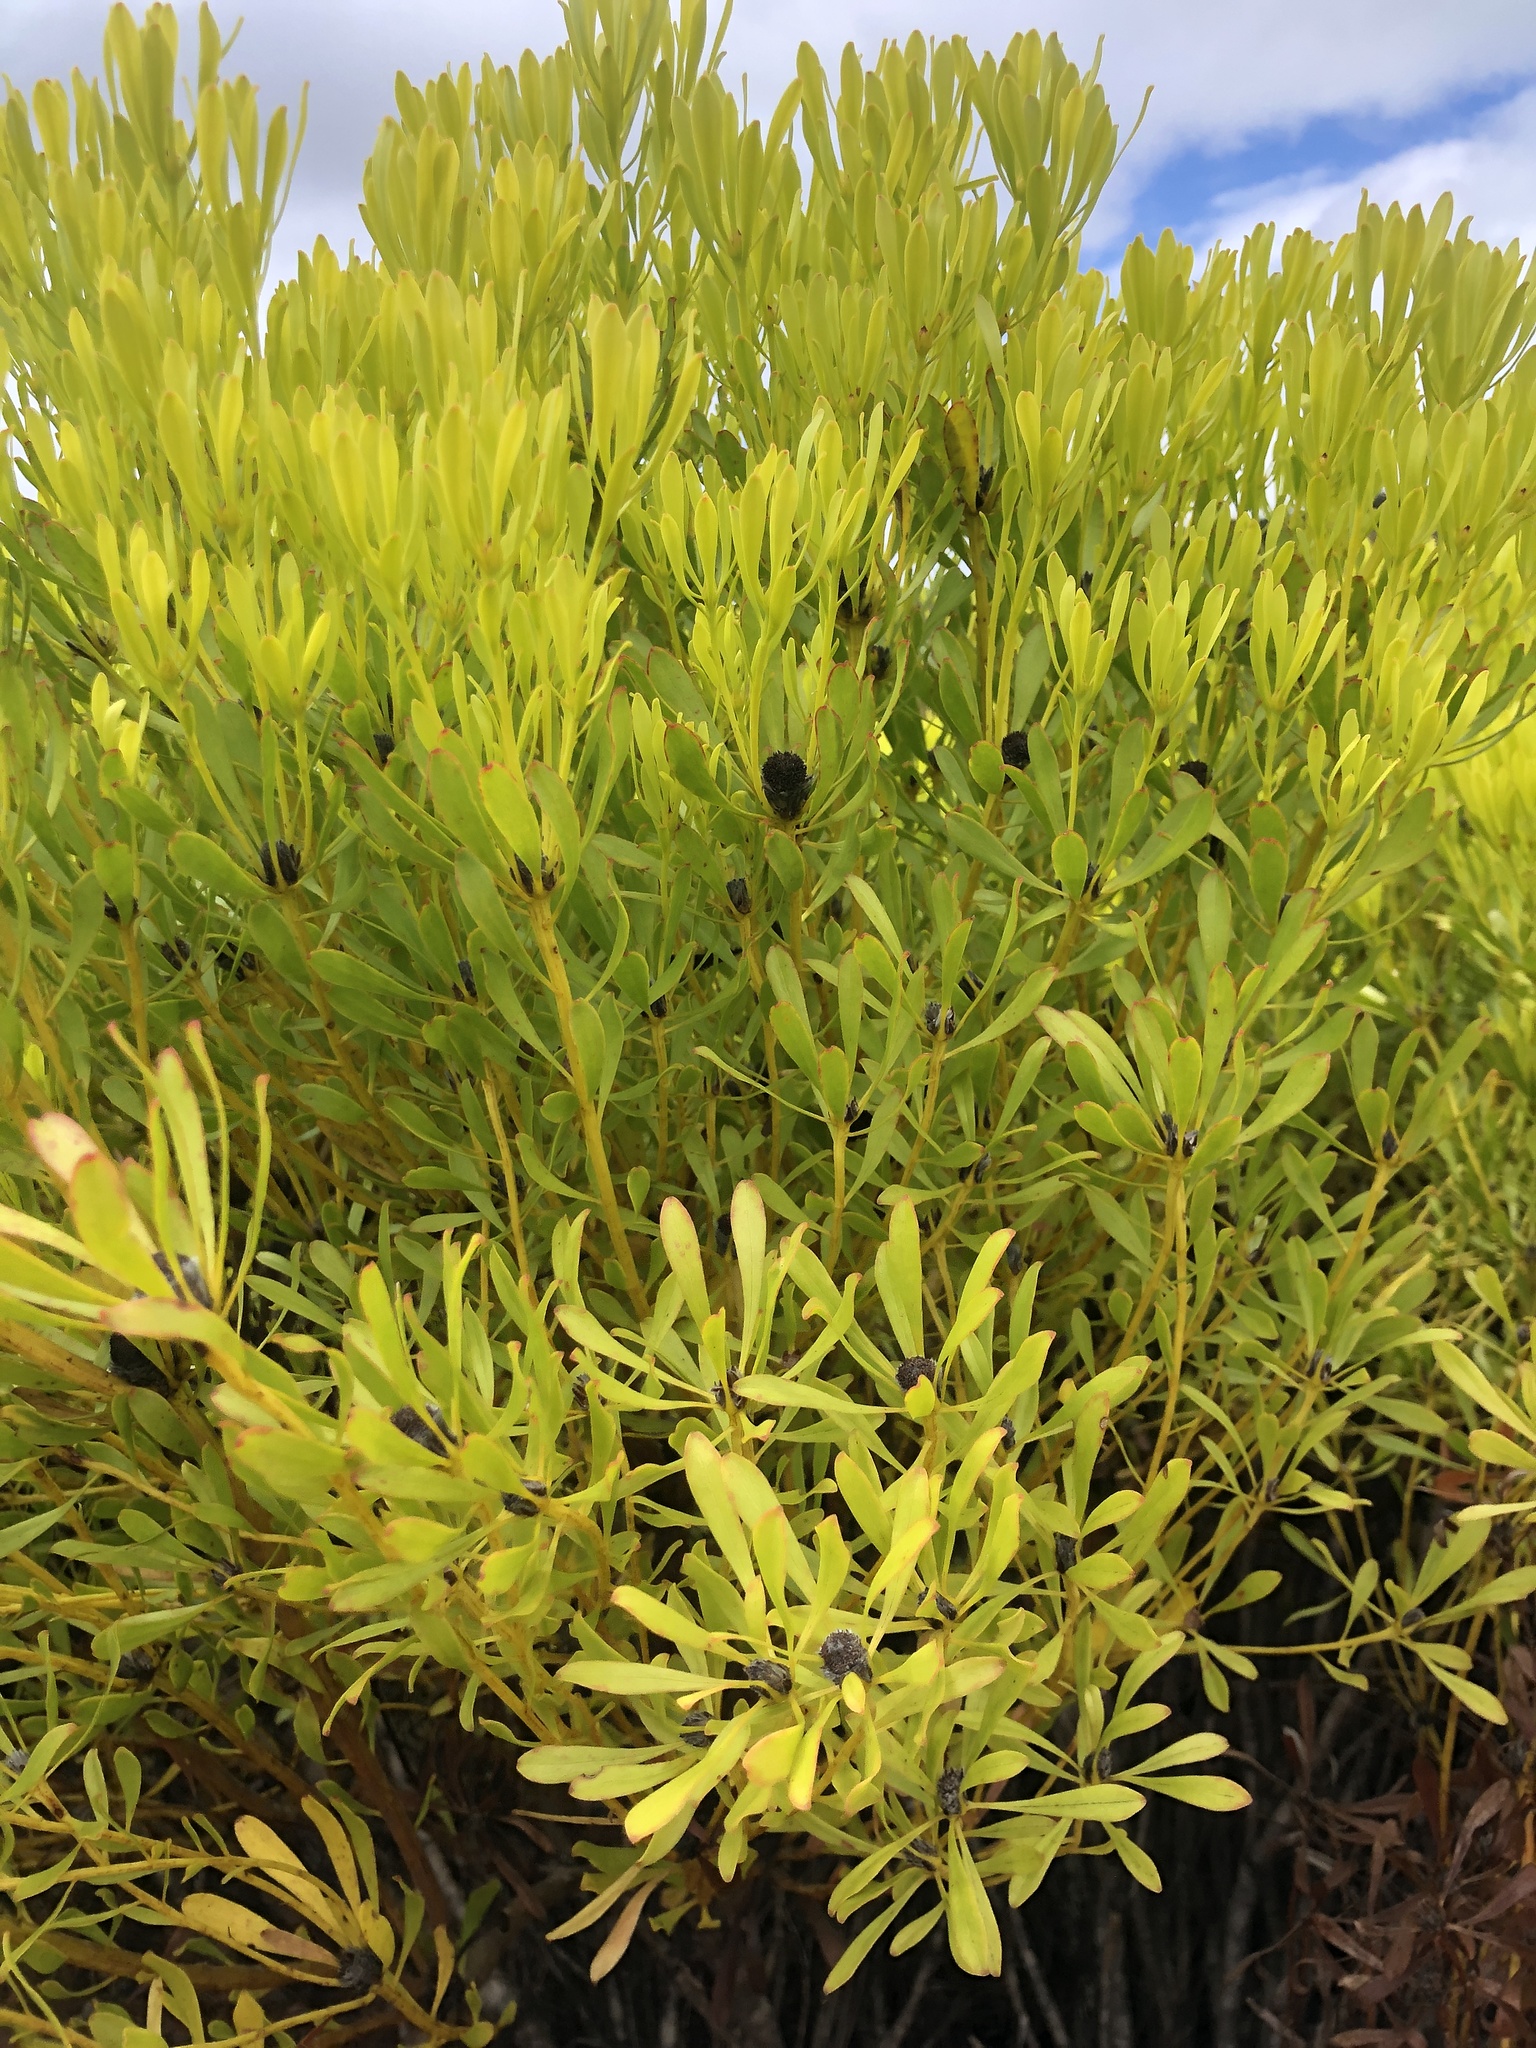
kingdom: Plantae
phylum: Tracheophyta
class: Magnoliopsida
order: Proteales
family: Proteaceae
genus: Leucadendron
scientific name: Leucadendron platyspermum
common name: Plate-seed conebush
